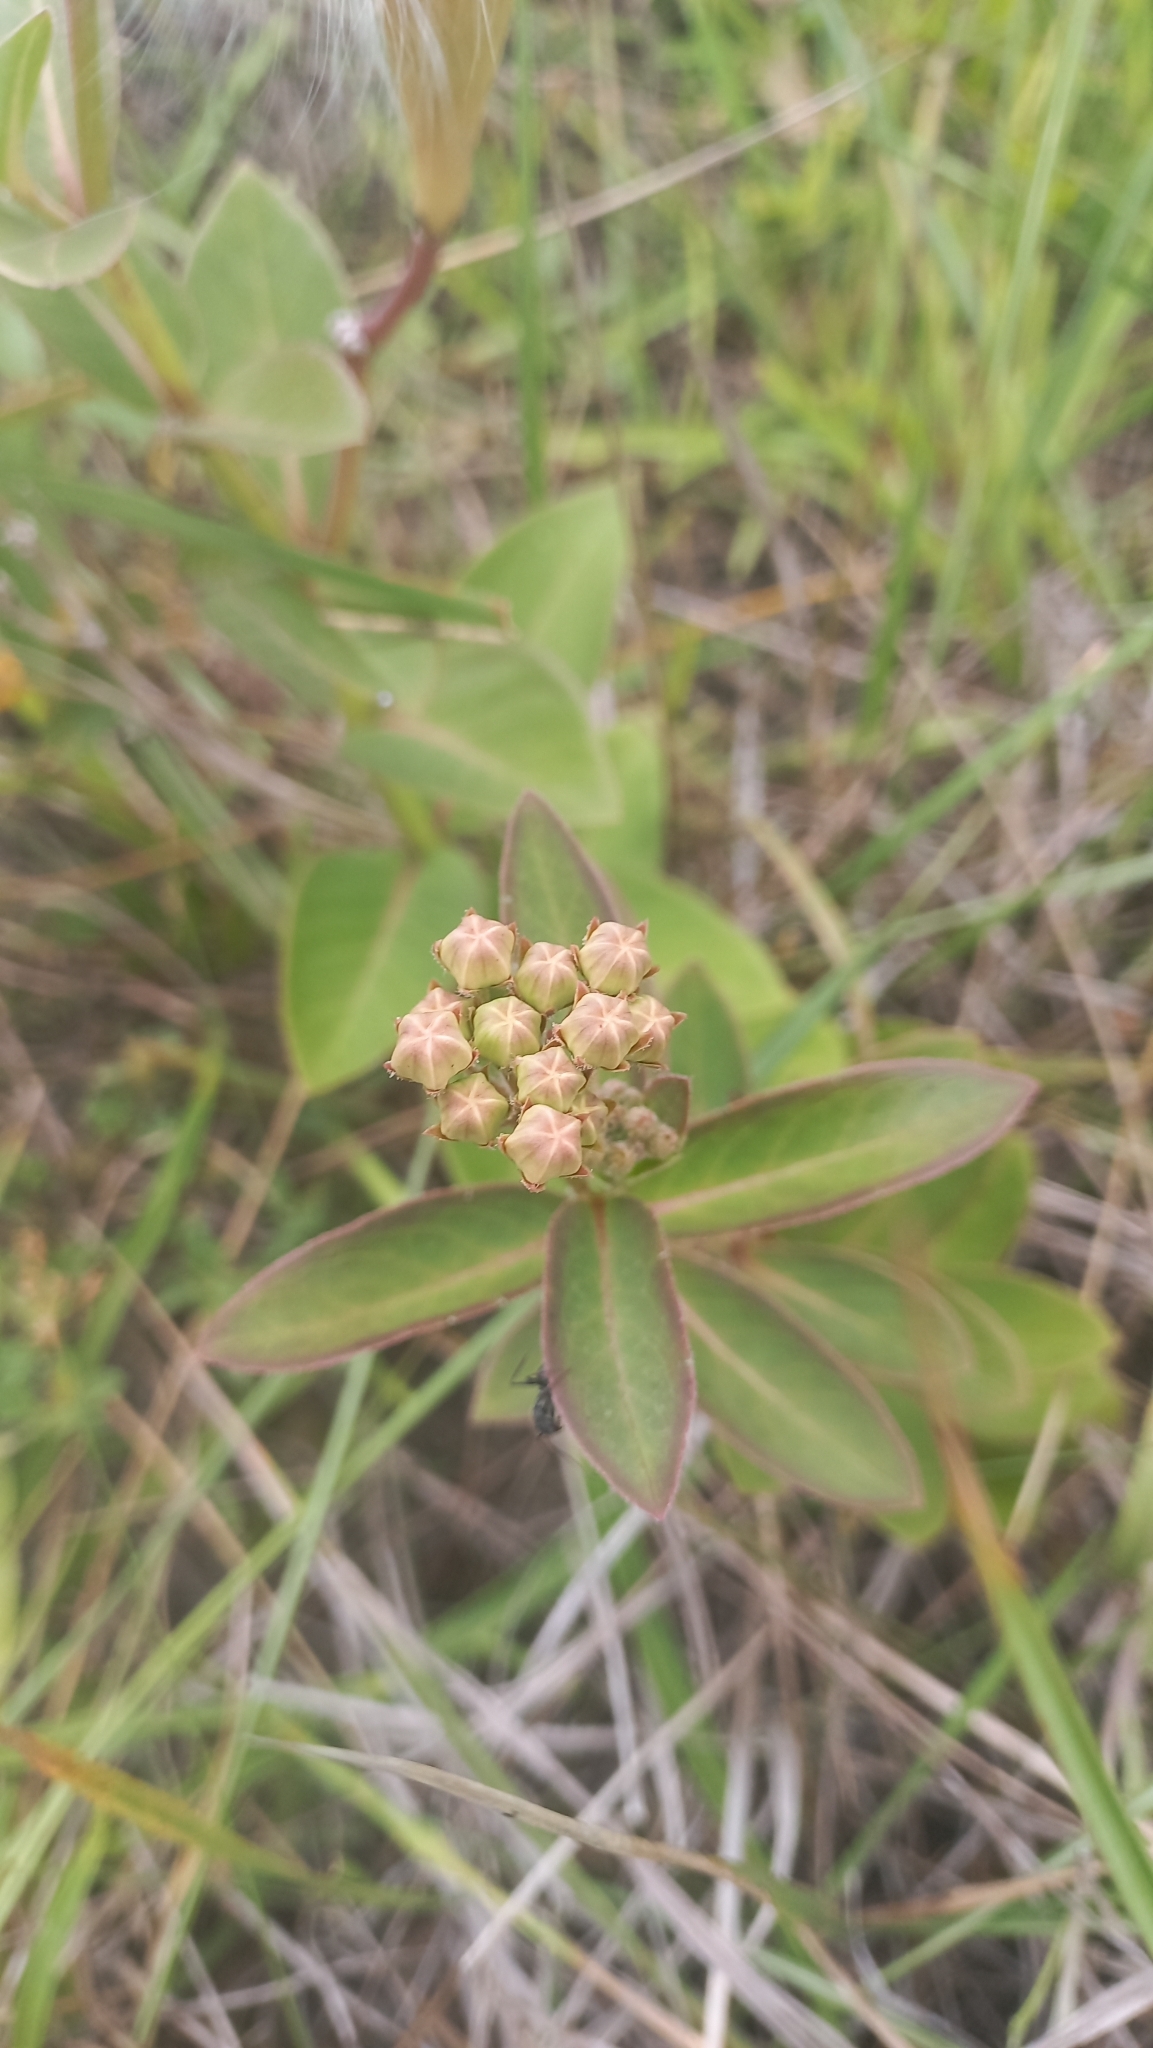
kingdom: Plantae
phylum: Tracheophyta
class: Magnoliopsida
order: Gentianales
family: Apocynaceae
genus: Asclepias
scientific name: Asclepias mellodora
